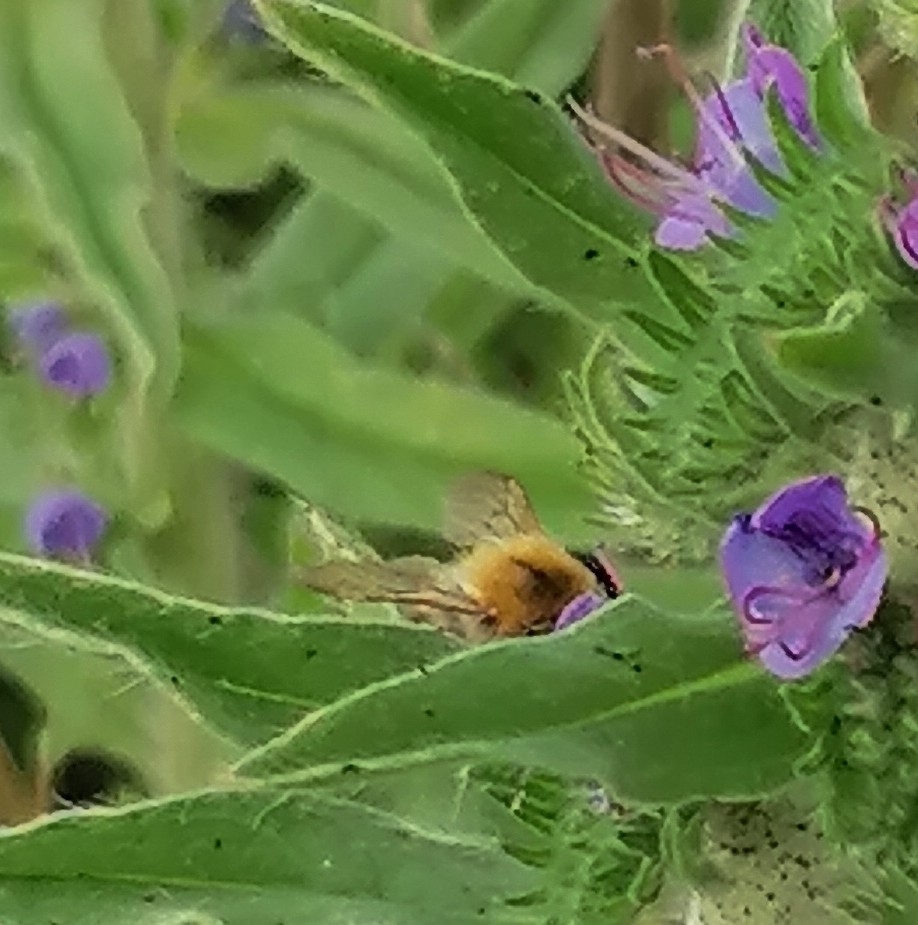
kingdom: Animalia
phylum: Arthropoda
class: Insecta
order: Hymenoptera
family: Apidae
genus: Bombus
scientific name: Bombus pascuorum
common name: Common carder bee
